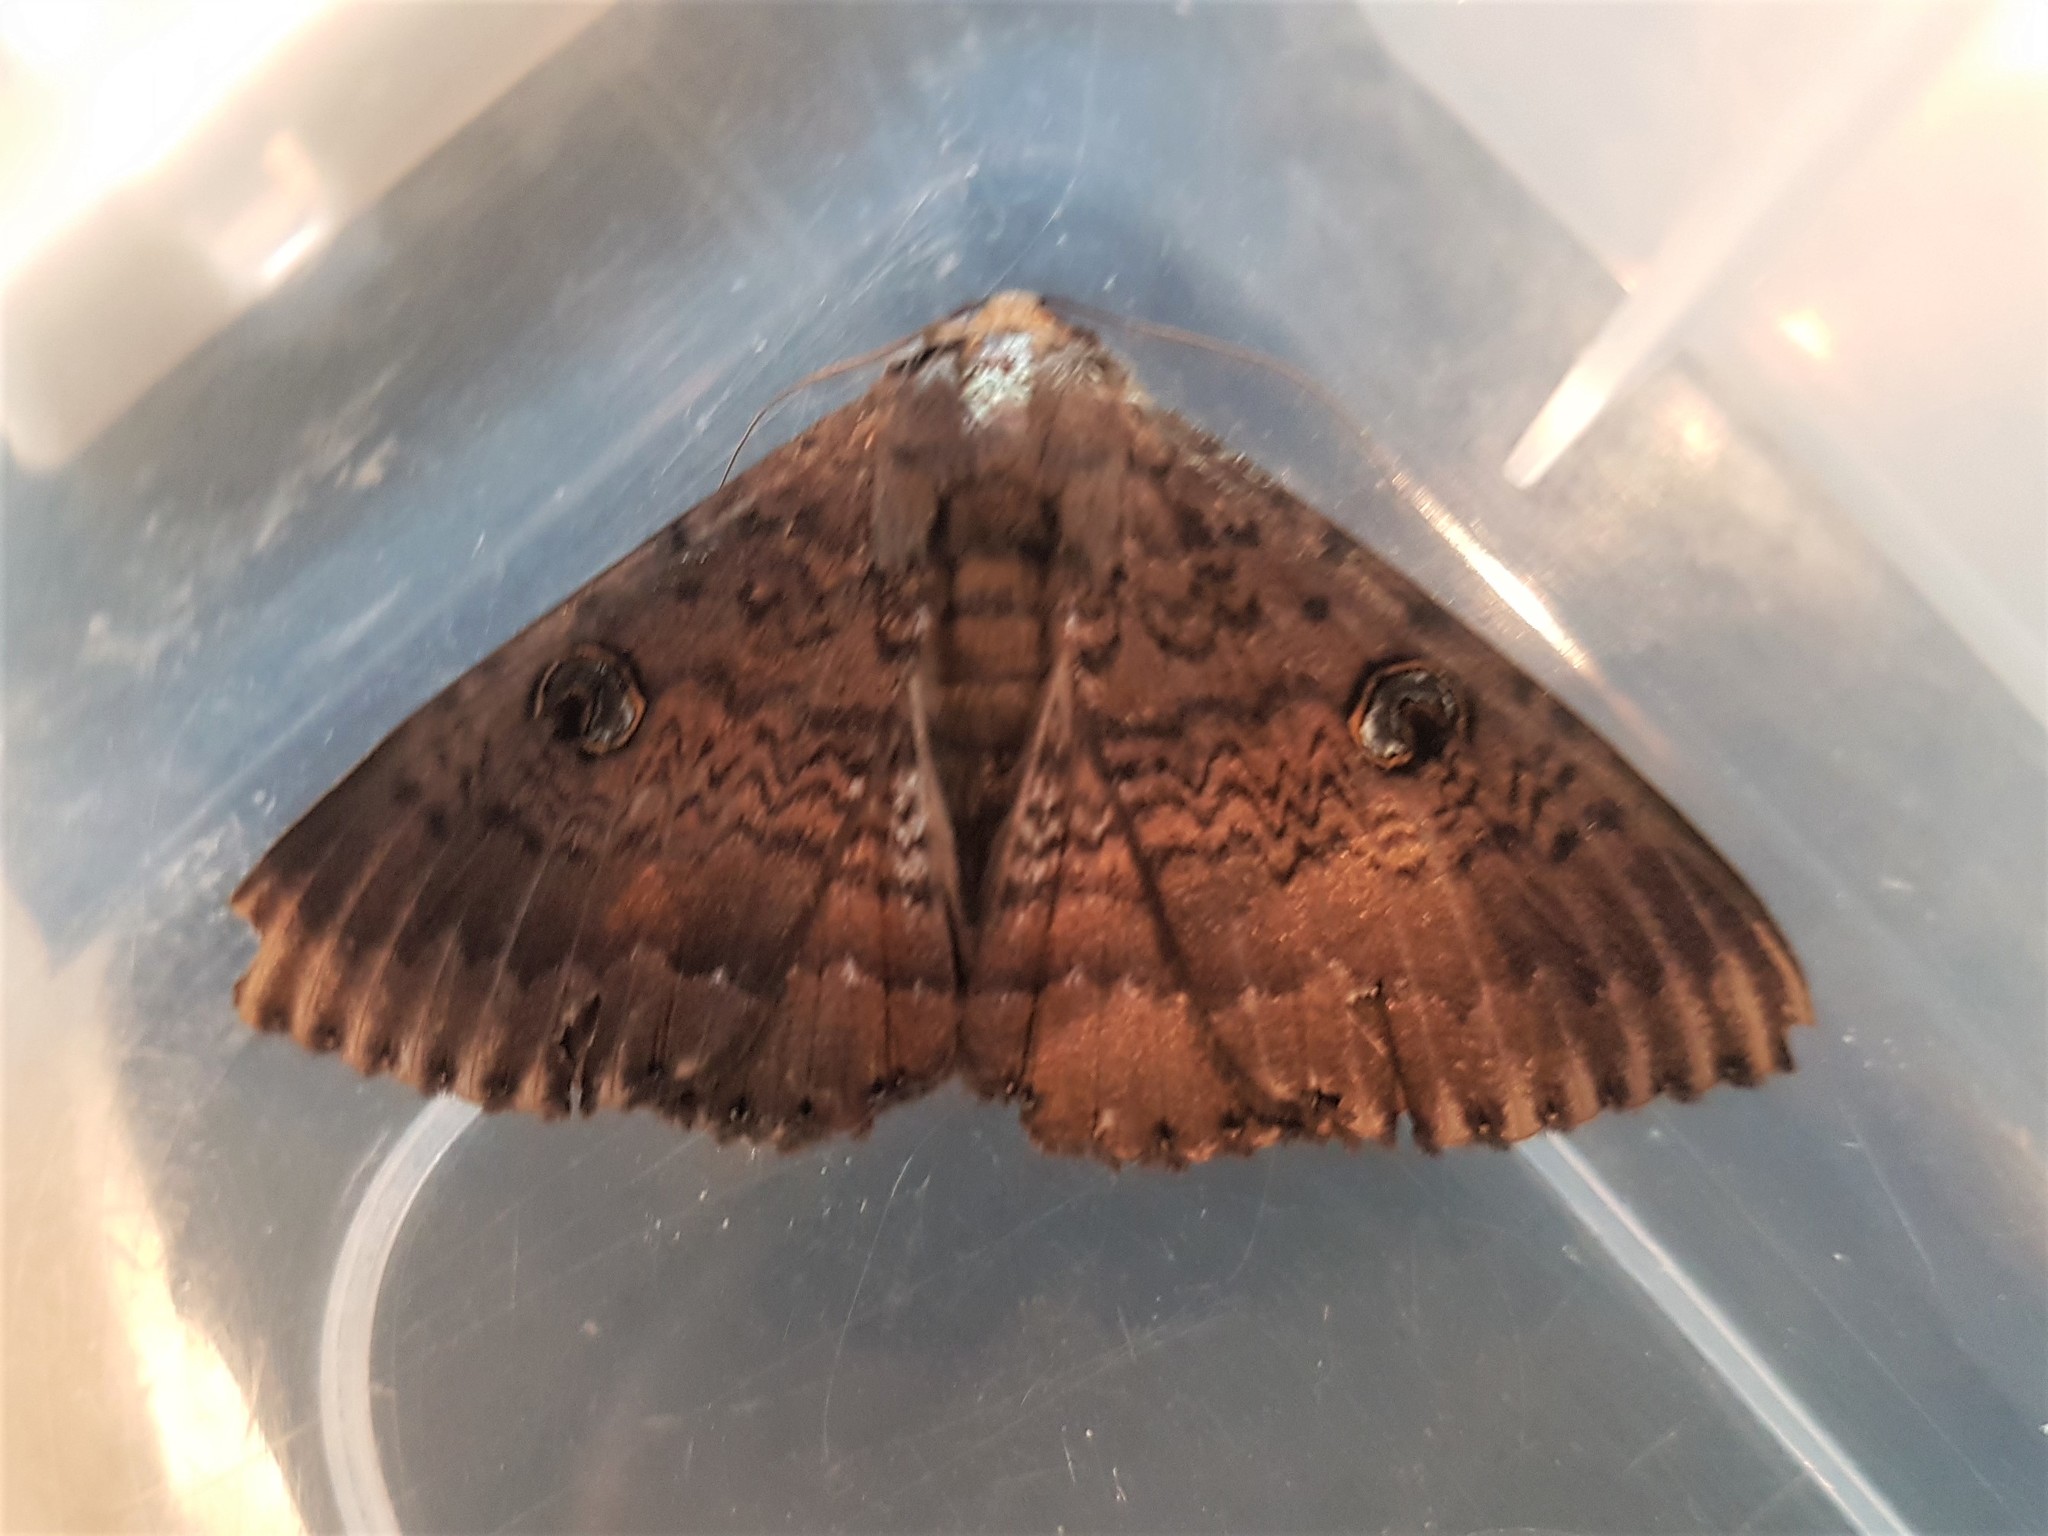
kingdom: Animalia
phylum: Arthropoda
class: Insecta
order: Lepidoptera
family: Erebidae
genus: Dasypodia
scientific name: Dasypodia cymatodes
